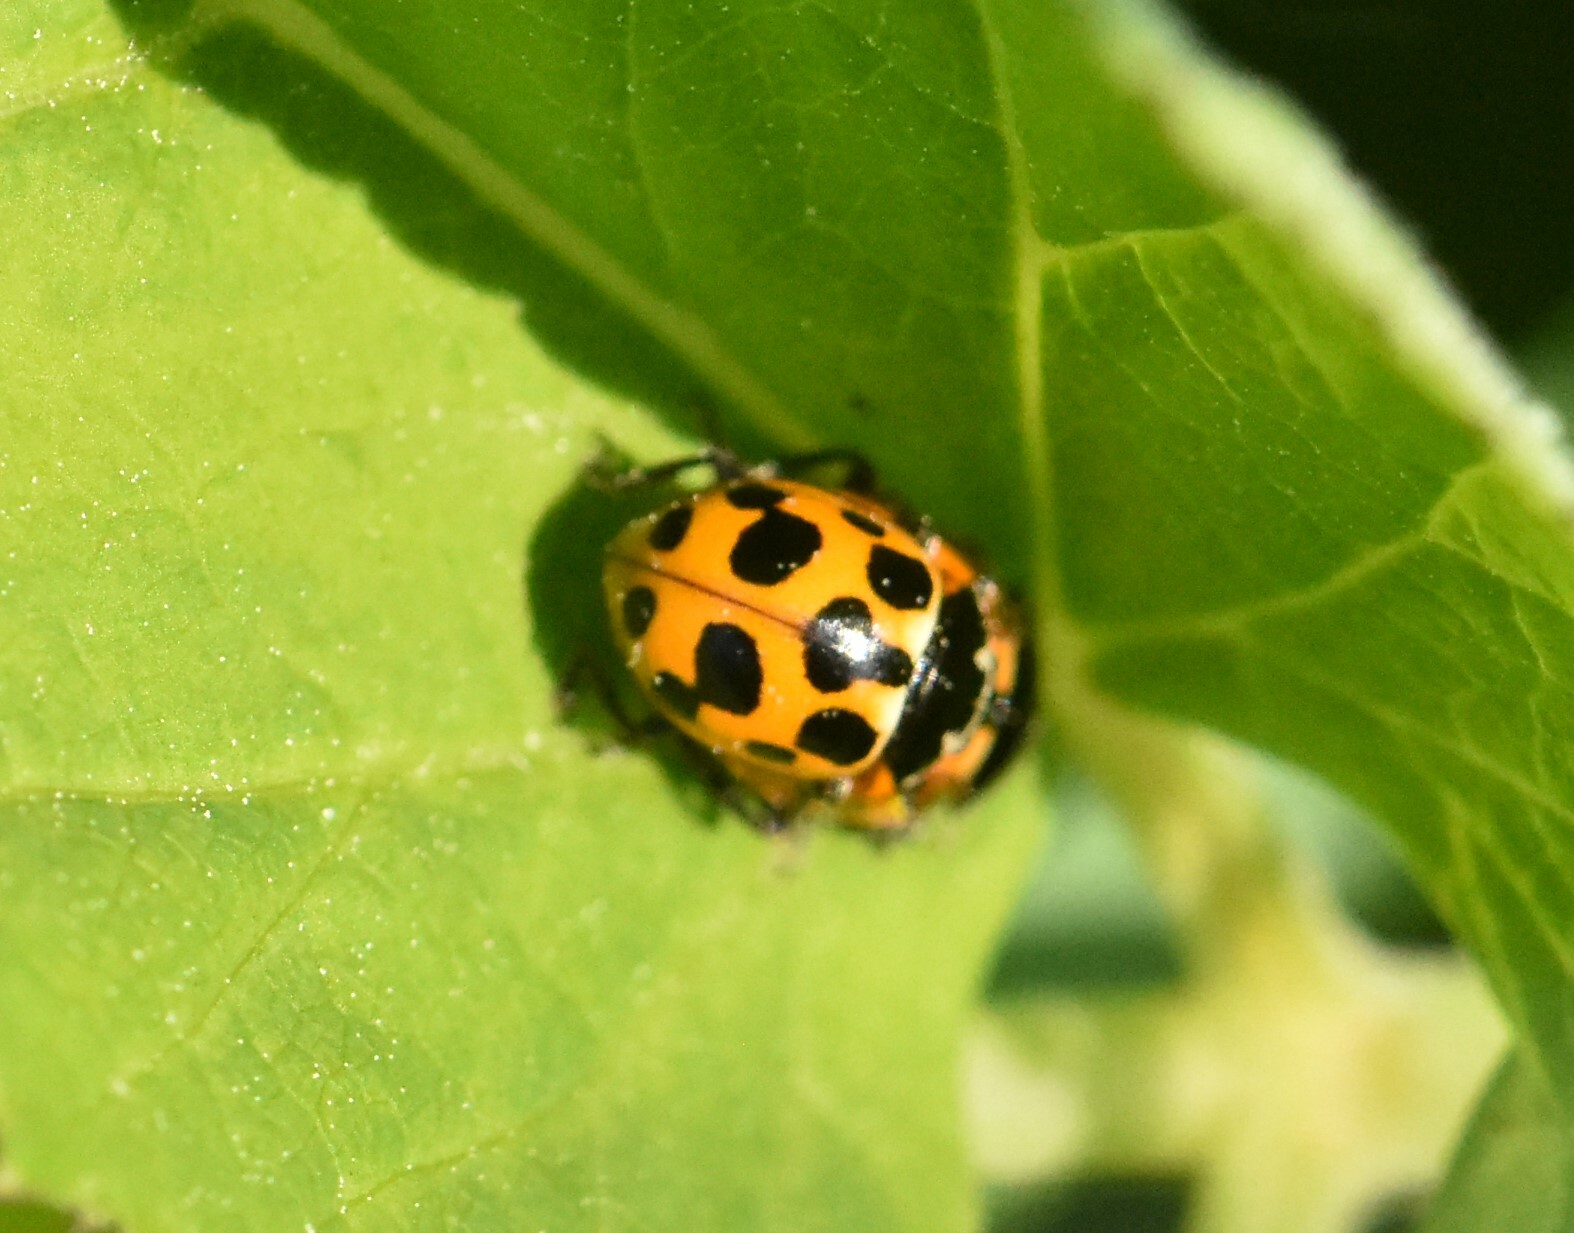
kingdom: Animalia
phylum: Arthropoda
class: Insecta
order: Coleoptera
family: Coccinellidae
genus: Ceratomegilla
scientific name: Ceratomegilla notata
